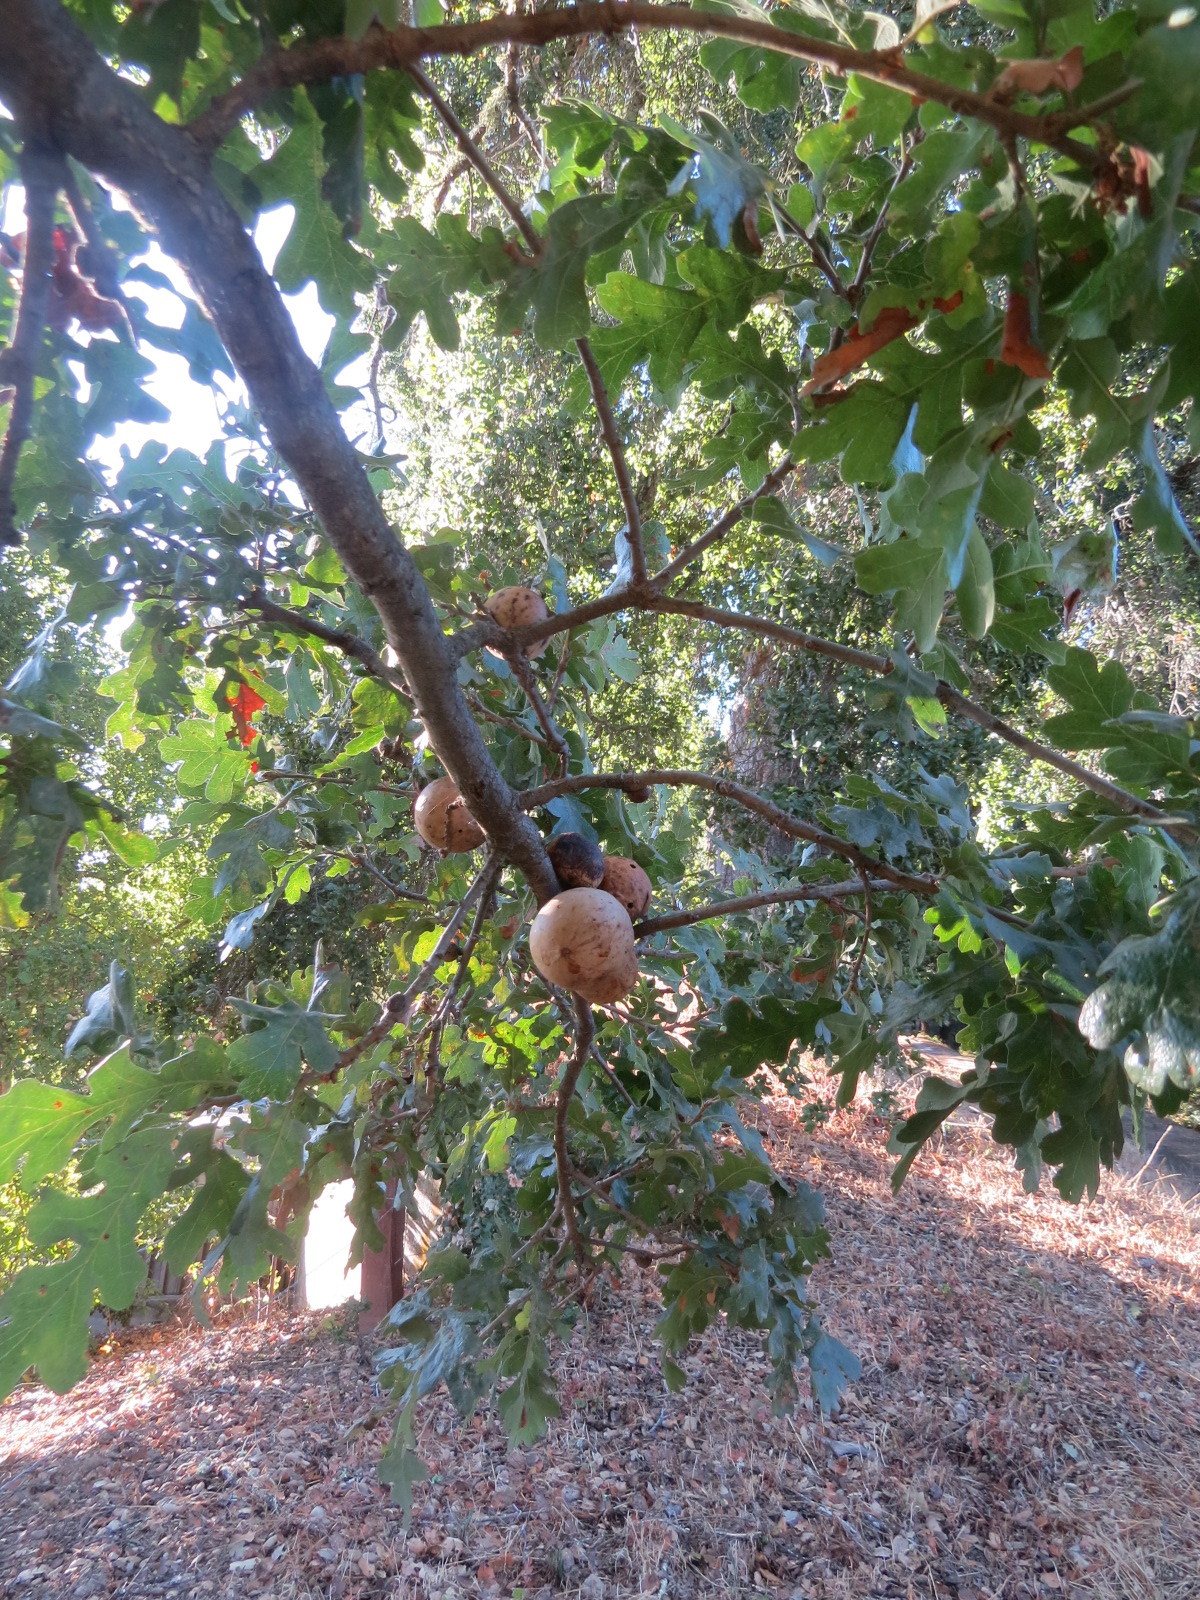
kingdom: Animalia
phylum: Arthropoda
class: Insecta
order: Hymenoptera
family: Cynipidae
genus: Andricus
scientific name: Andricus quercuscalifornicus
